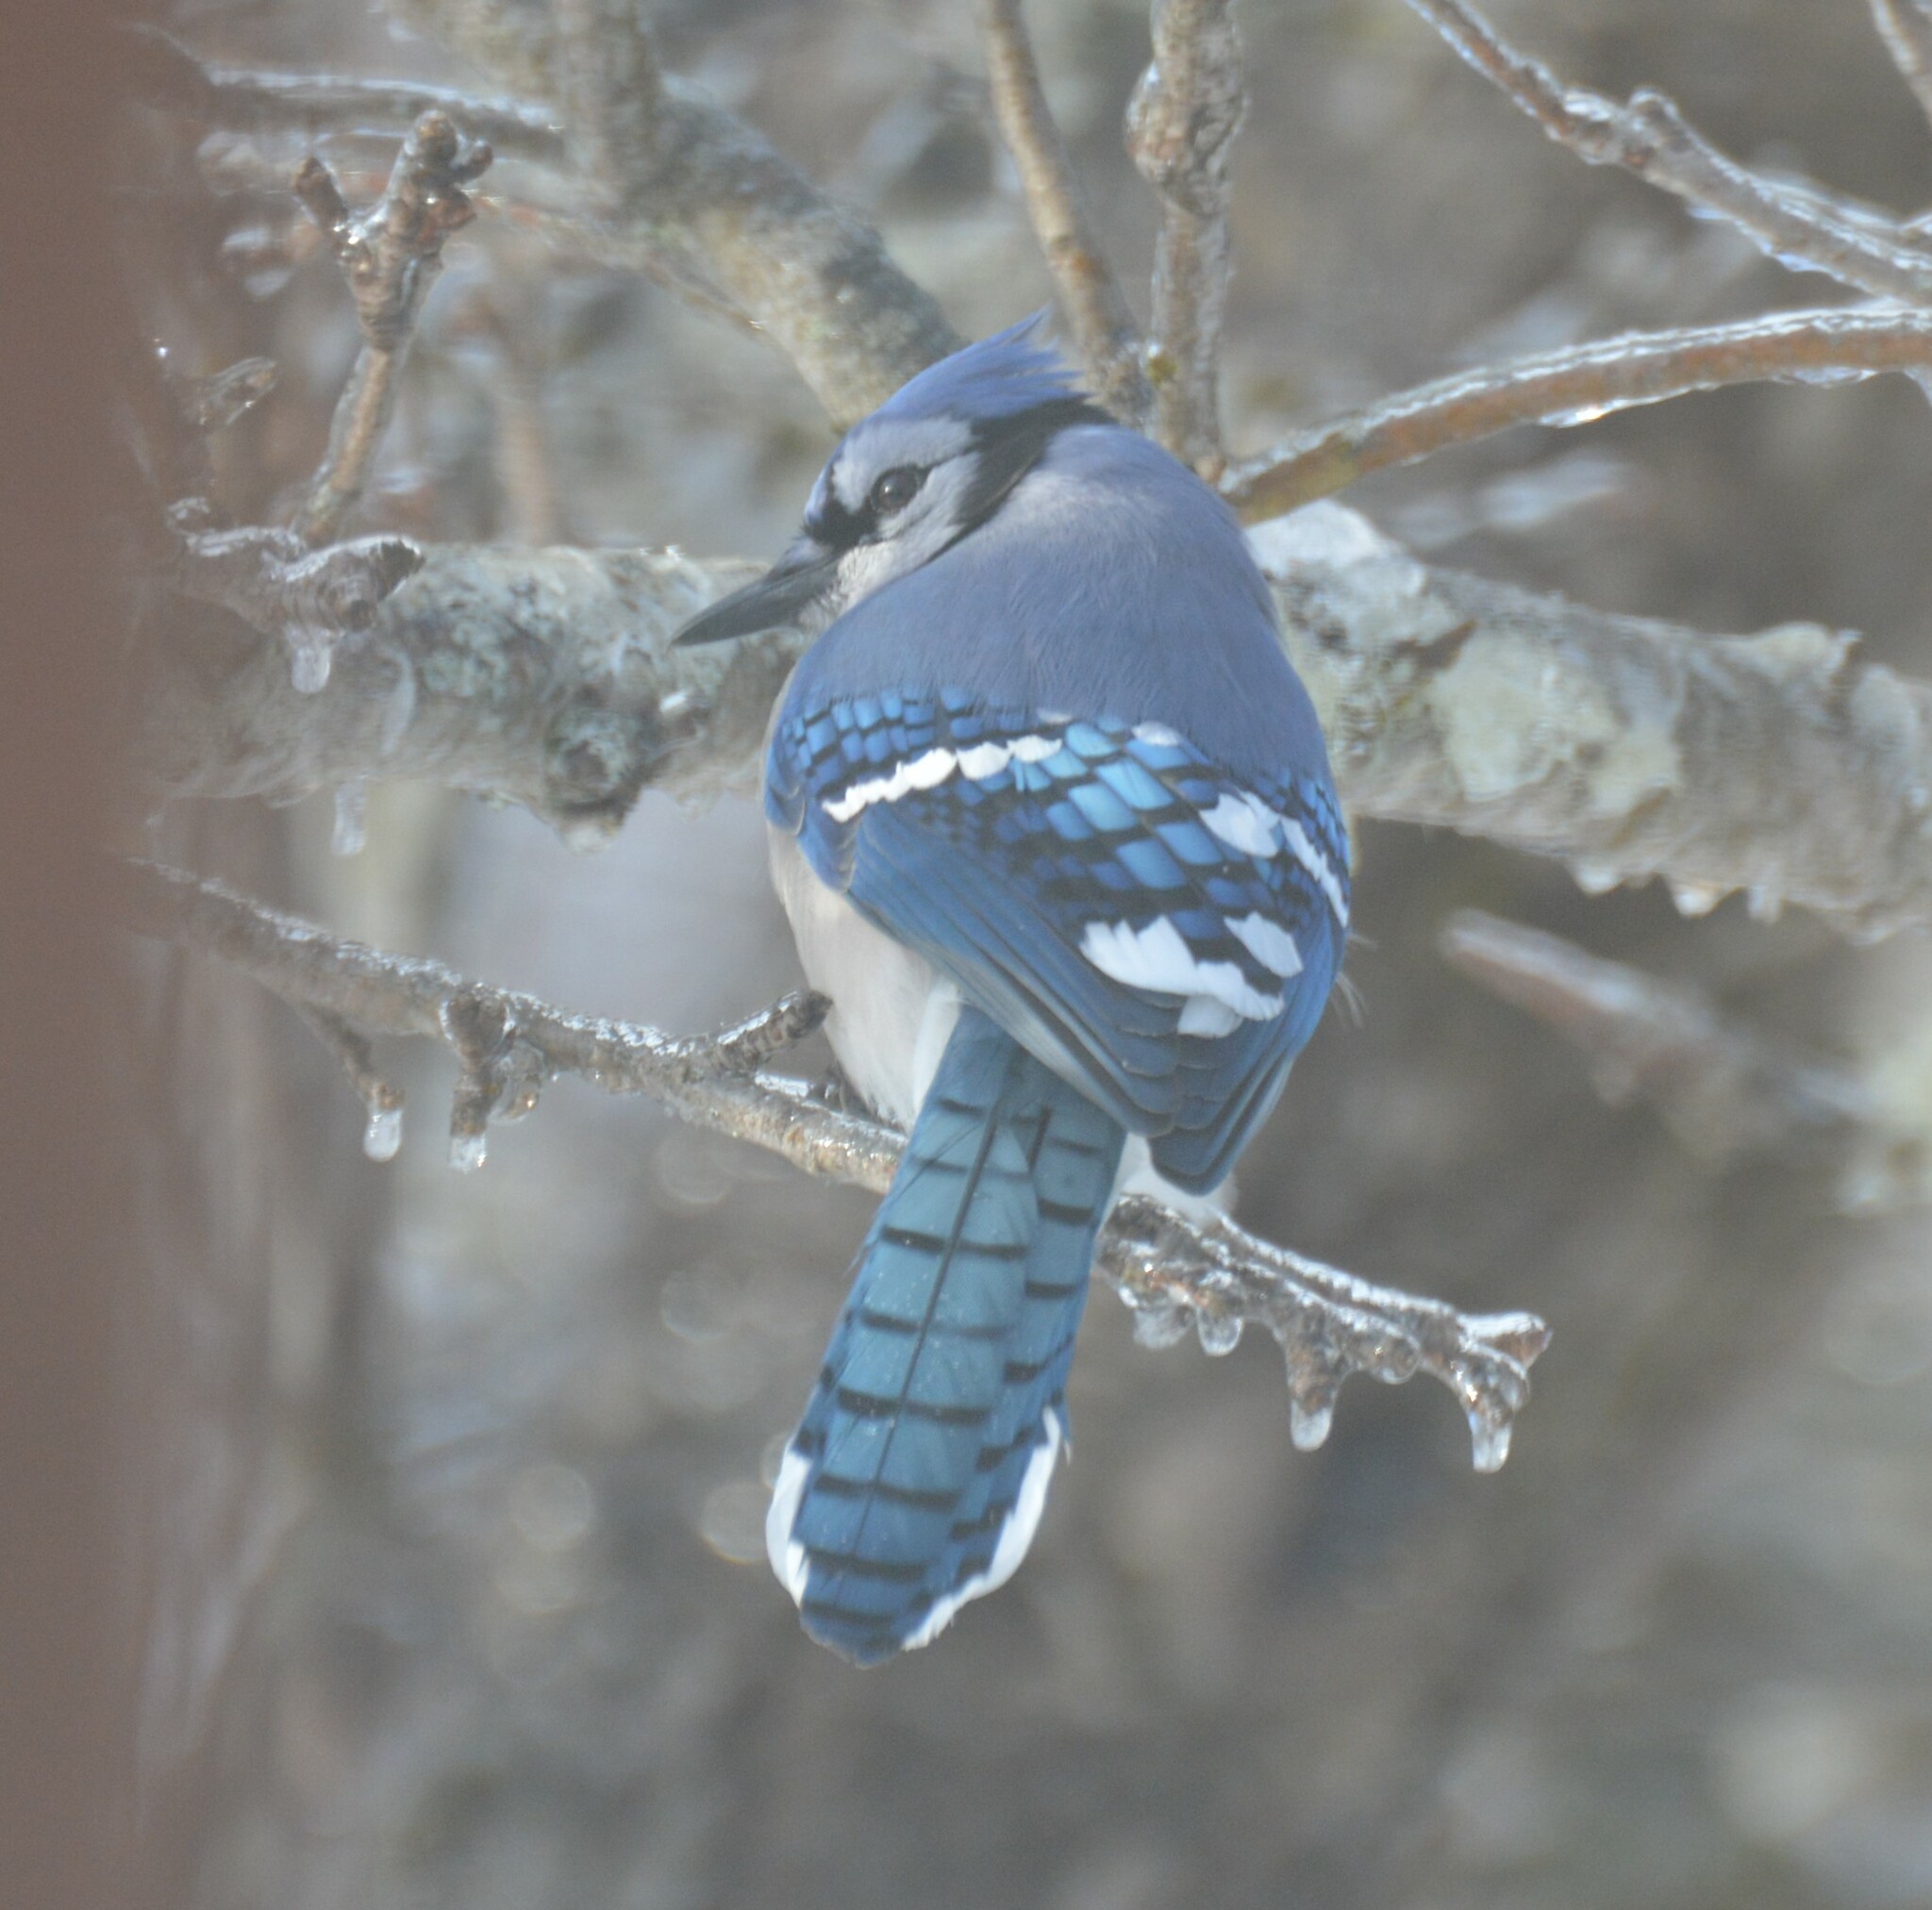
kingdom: Animalia
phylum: Chordata
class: Aves
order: Passeriformes
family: Corvidae
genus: Cyanocitta
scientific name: Cyanocitta cristata
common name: Blue jay
